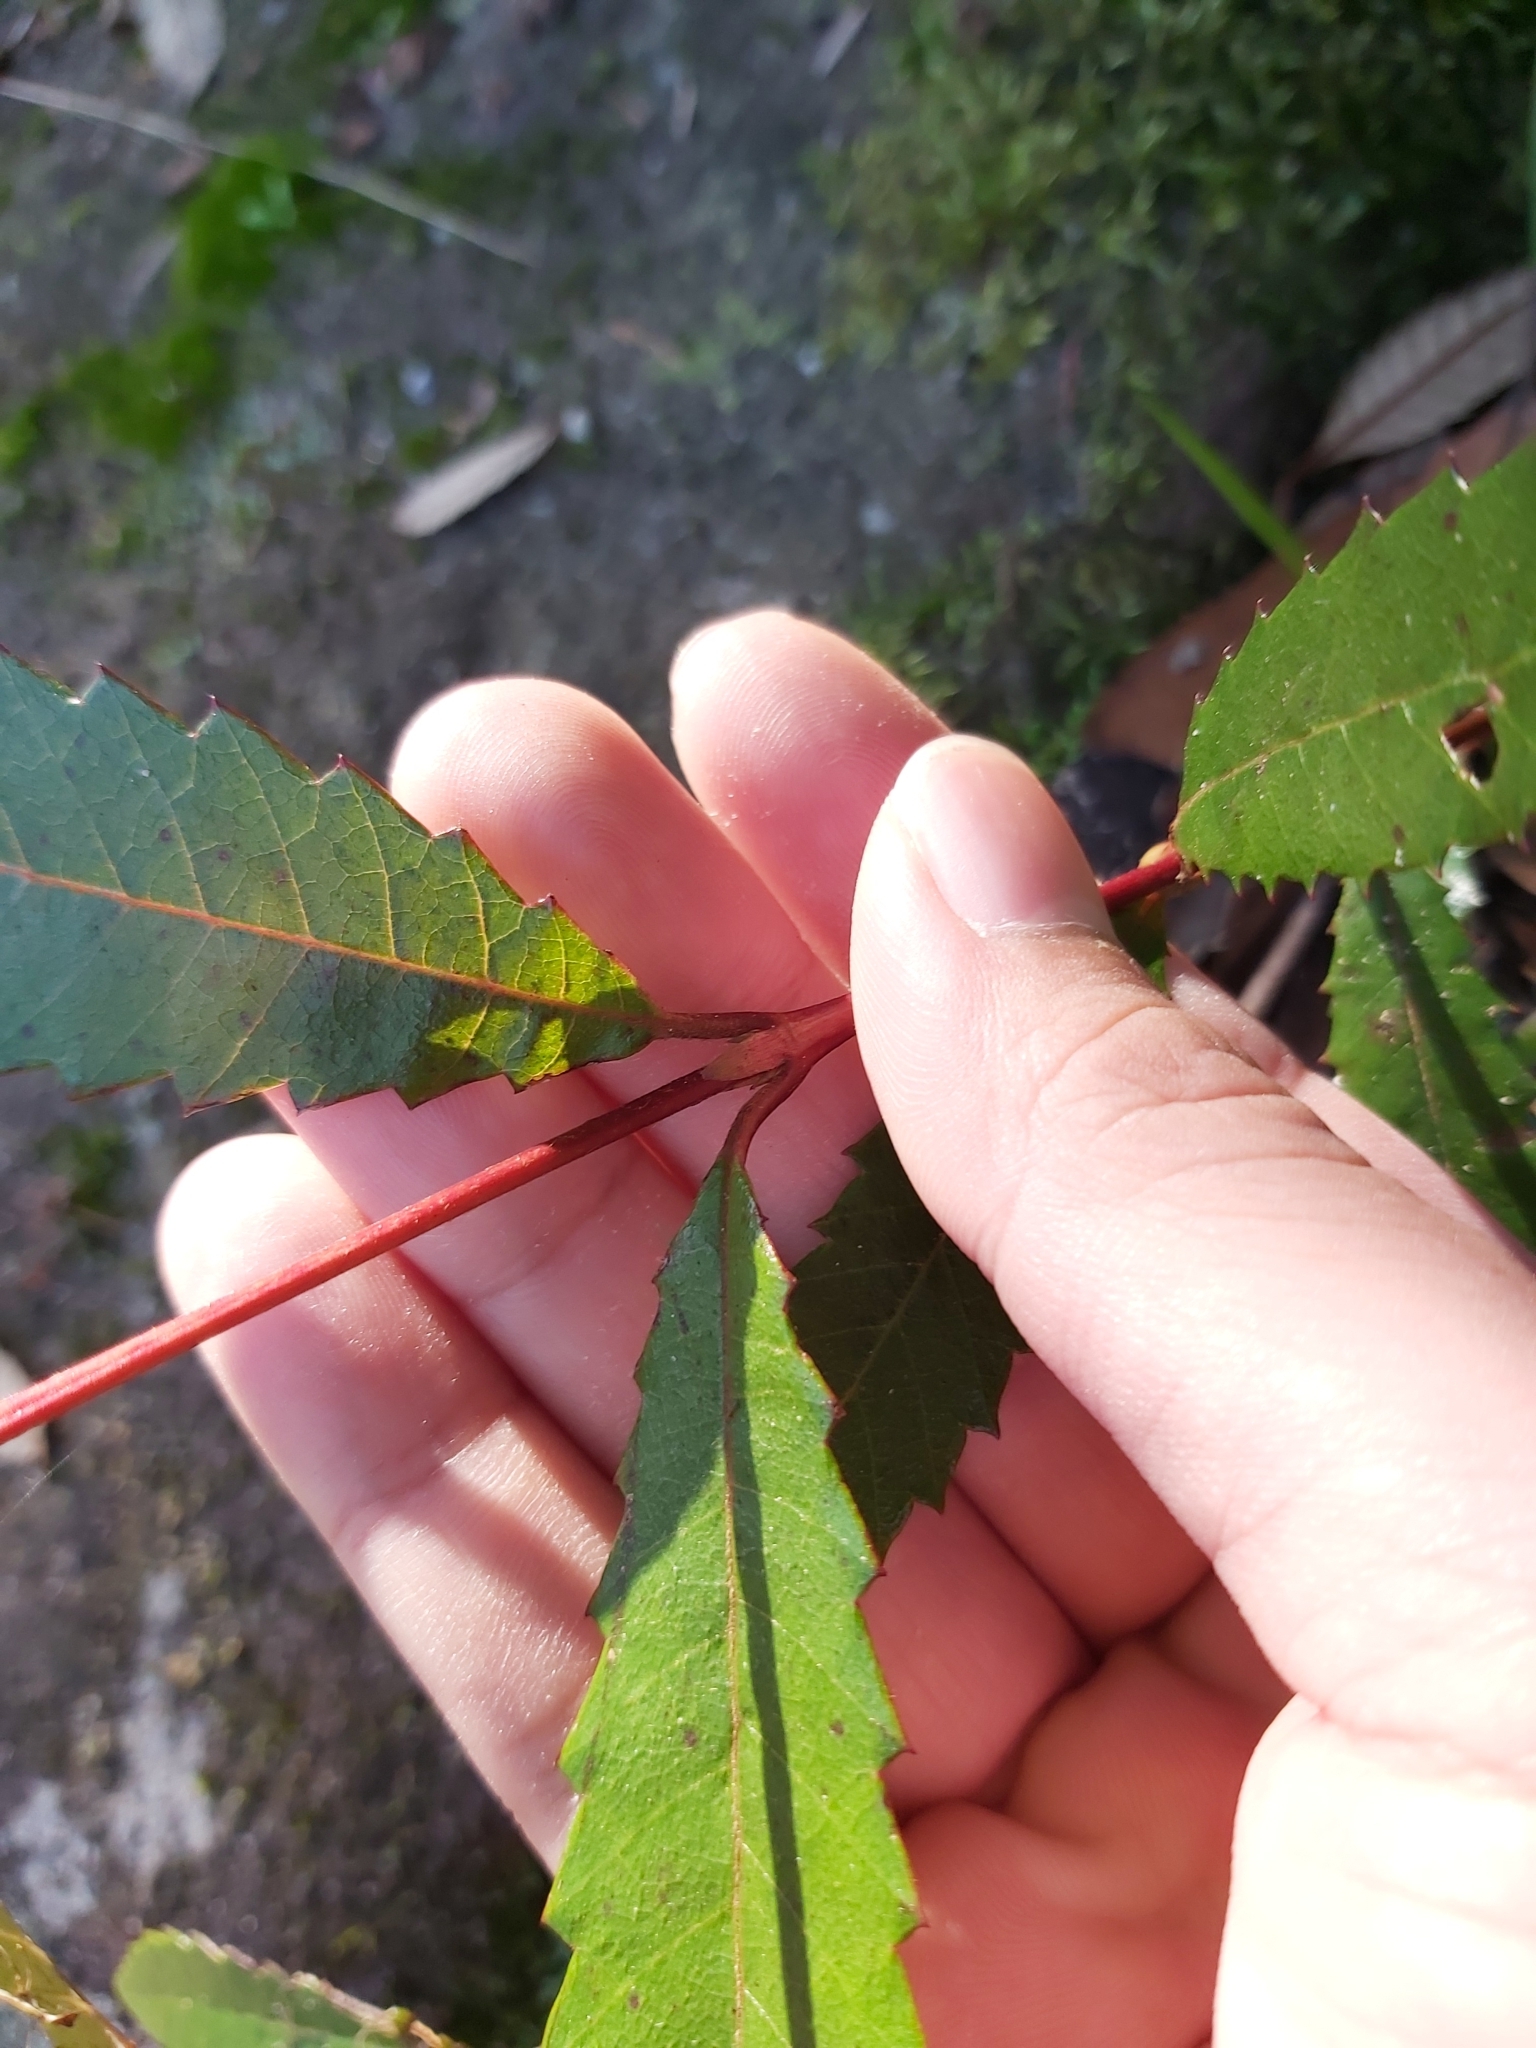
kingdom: Plantae
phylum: Tracheophyta
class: Magnoliopsida
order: Oxalidales
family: Cunoniaceae
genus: Callicoma
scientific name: Callicoma serratifolia
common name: Black wattle
